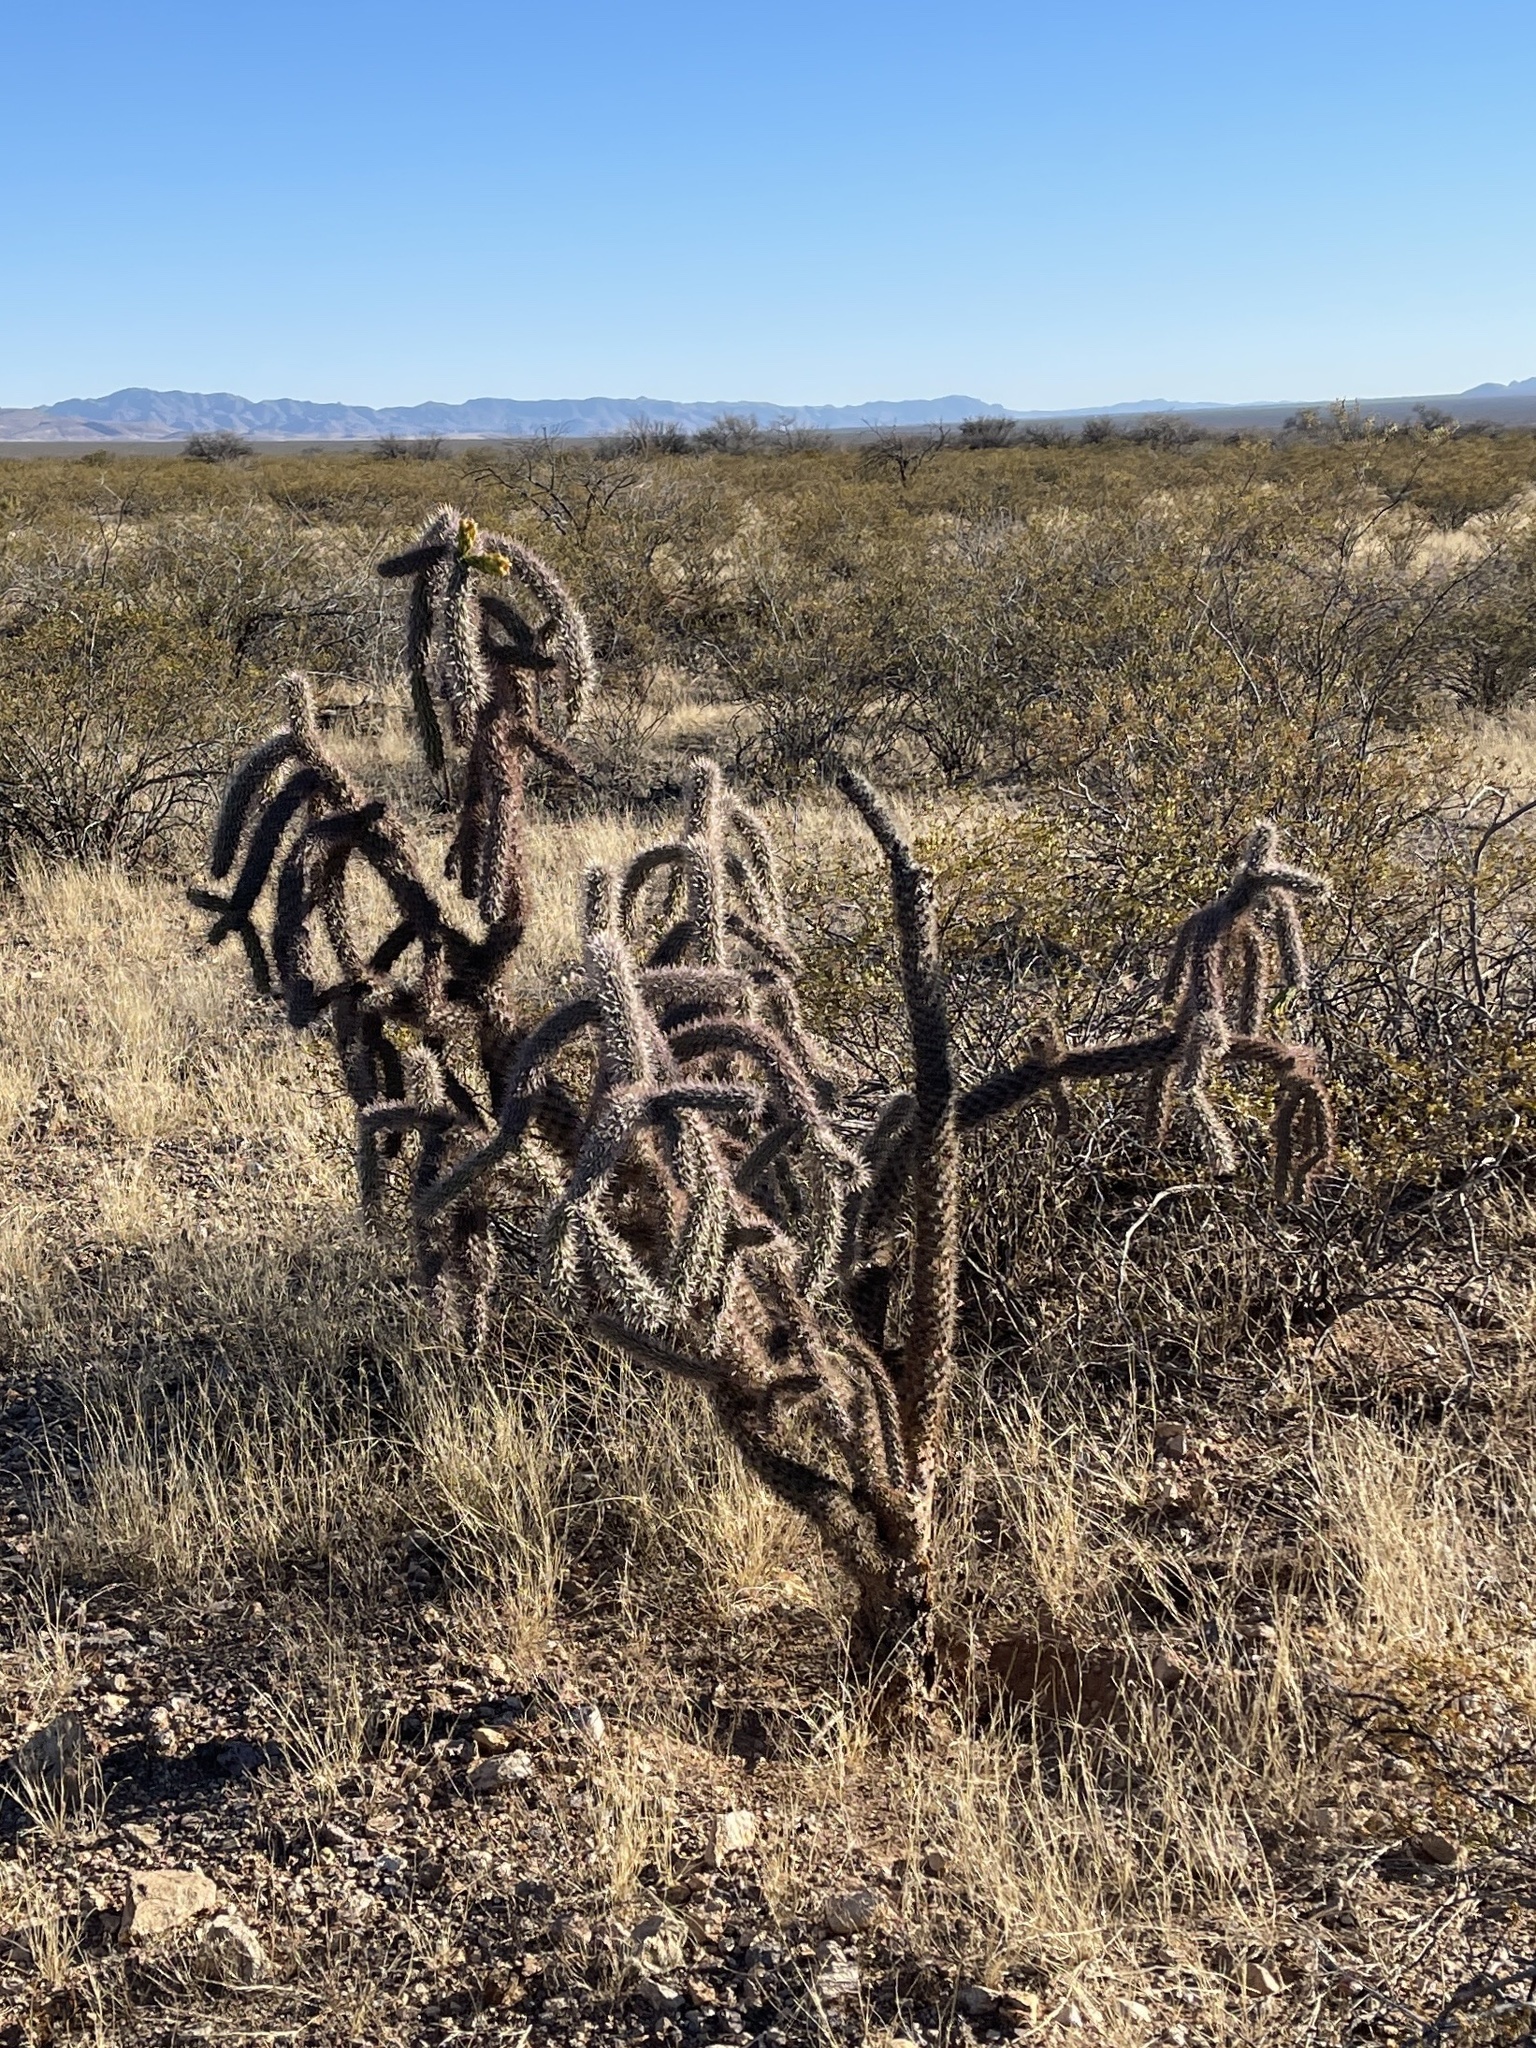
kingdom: Plantae
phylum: Tracheophyta
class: Magnoliopsida
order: Caryophyllales
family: Cactaceae
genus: Cylindropuntia
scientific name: Cylindropuntia imbricata
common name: Candelabrum cactus
